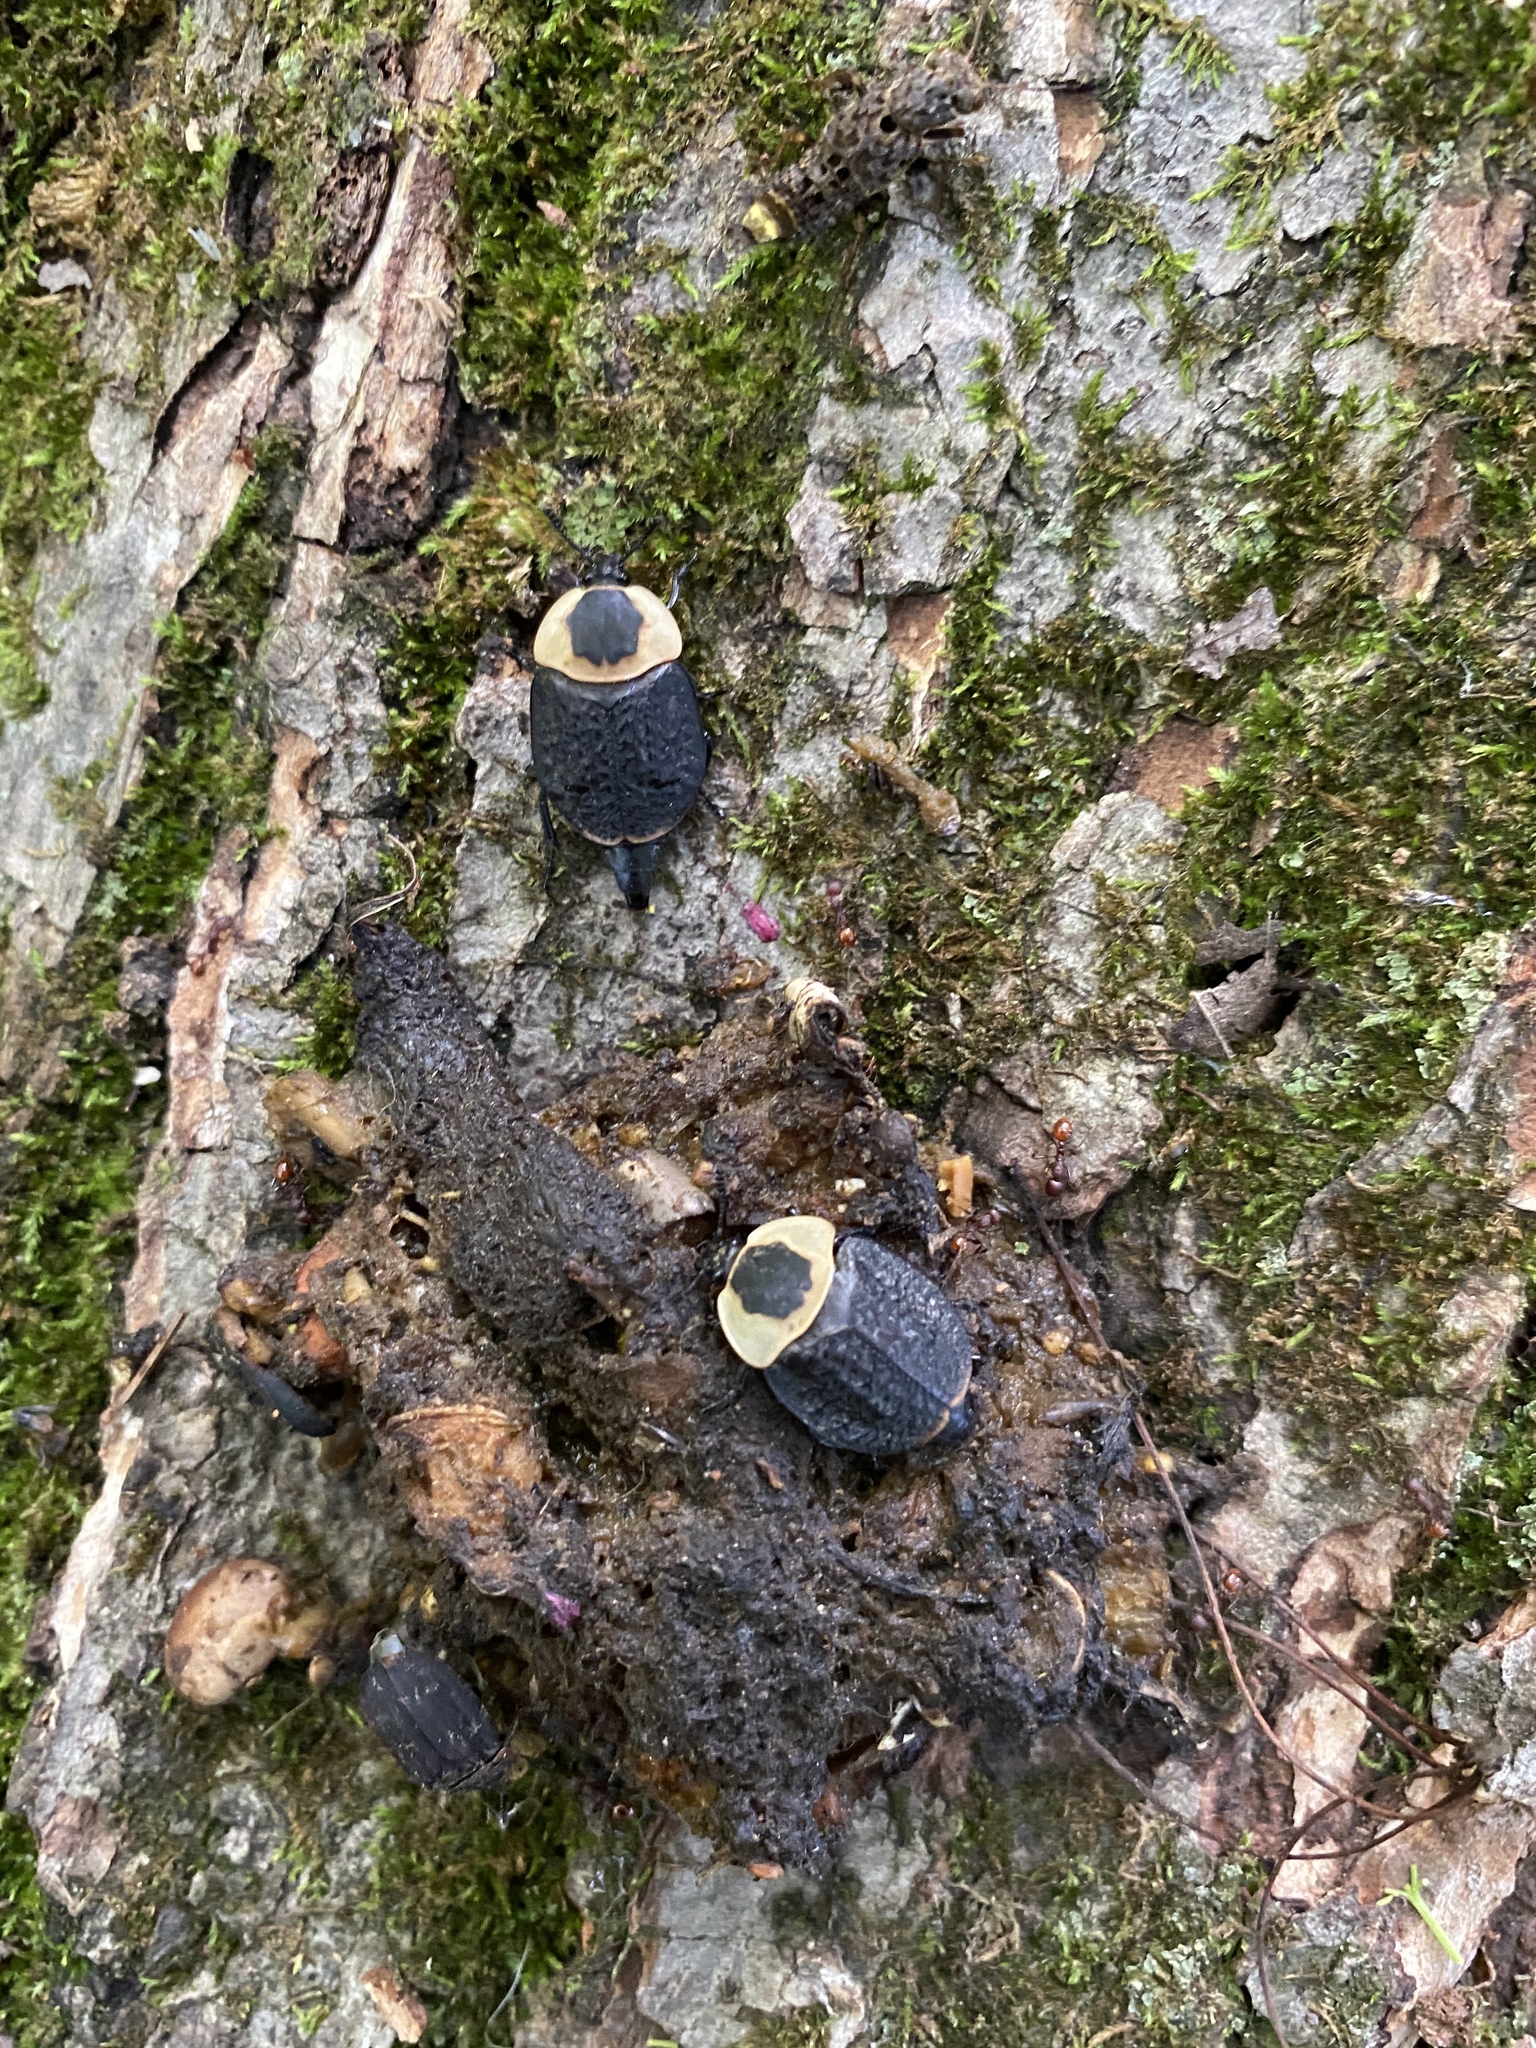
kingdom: Animalia
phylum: Arthropoda
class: Insecta
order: Coleoptera
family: Staphylinidae
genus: Necrophila
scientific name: Necrophila americana
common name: American carrion beetle
